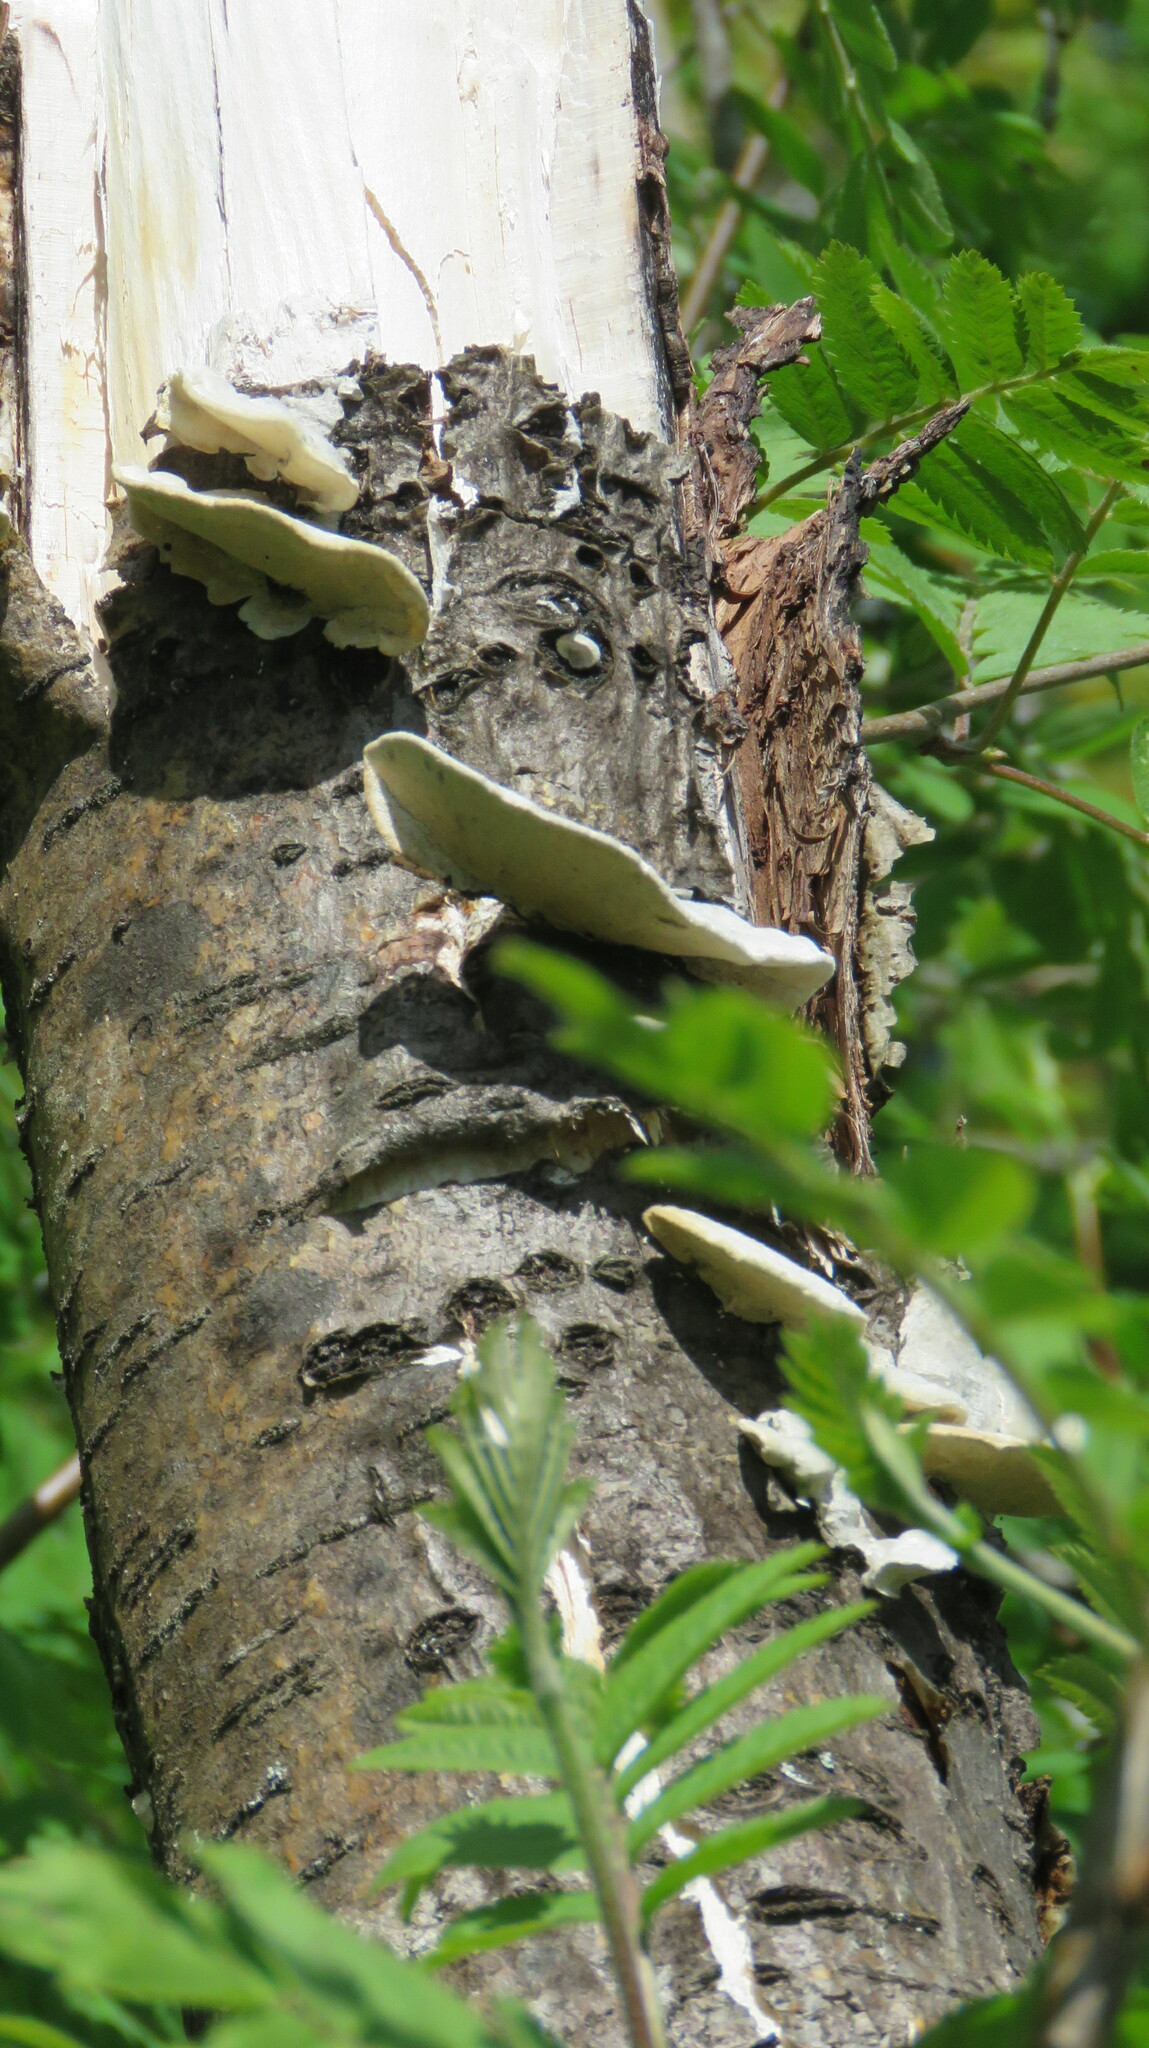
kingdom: Fungi
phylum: Basidiomycota
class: Agaricomycetes
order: Polyporales
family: Incrustoporiaceae
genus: Tyromyces
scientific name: Tyromyces chioneus
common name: White cheese polypore
